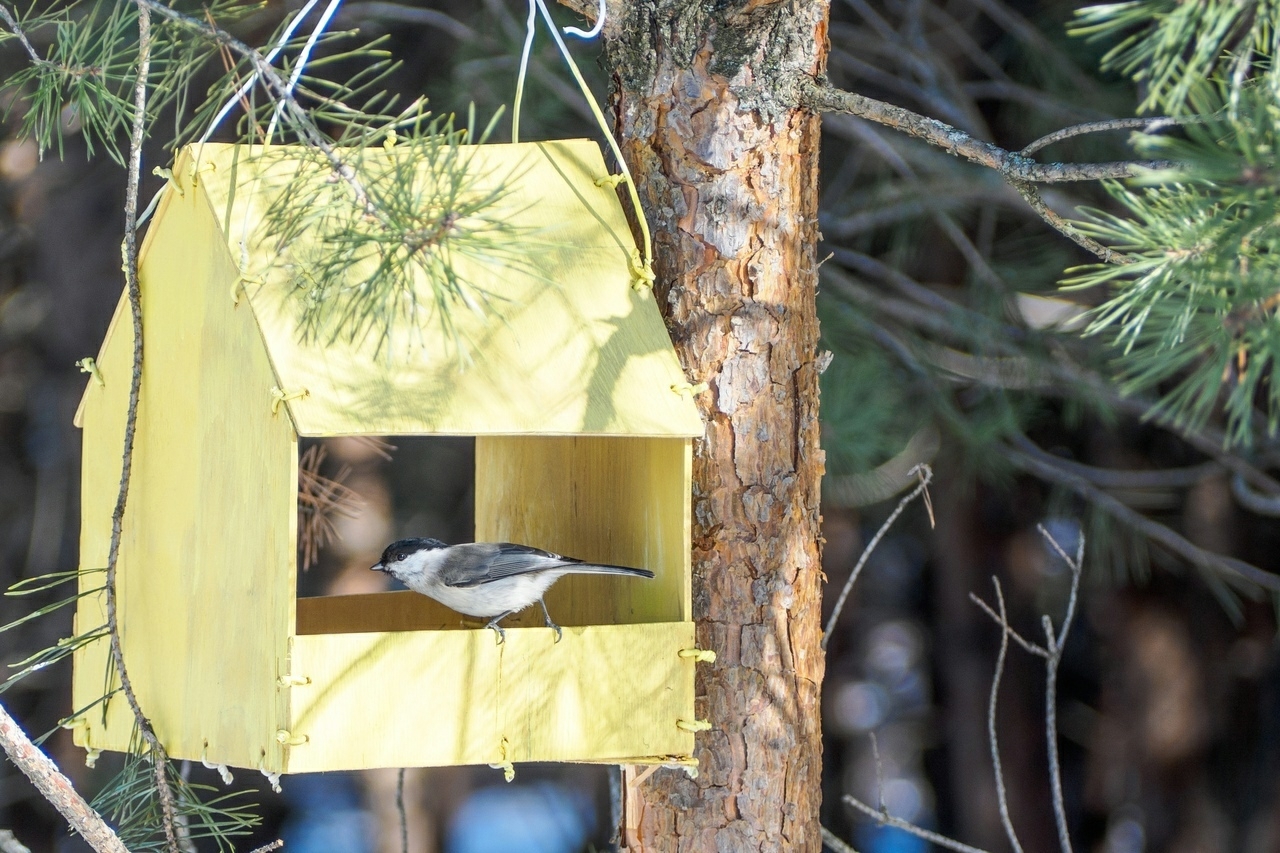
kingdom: Animalia
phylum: Chordata
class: Aves
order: Passeriformes
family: Paridae
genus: Poecile
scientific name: Poecile montanus
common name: Willow tit
